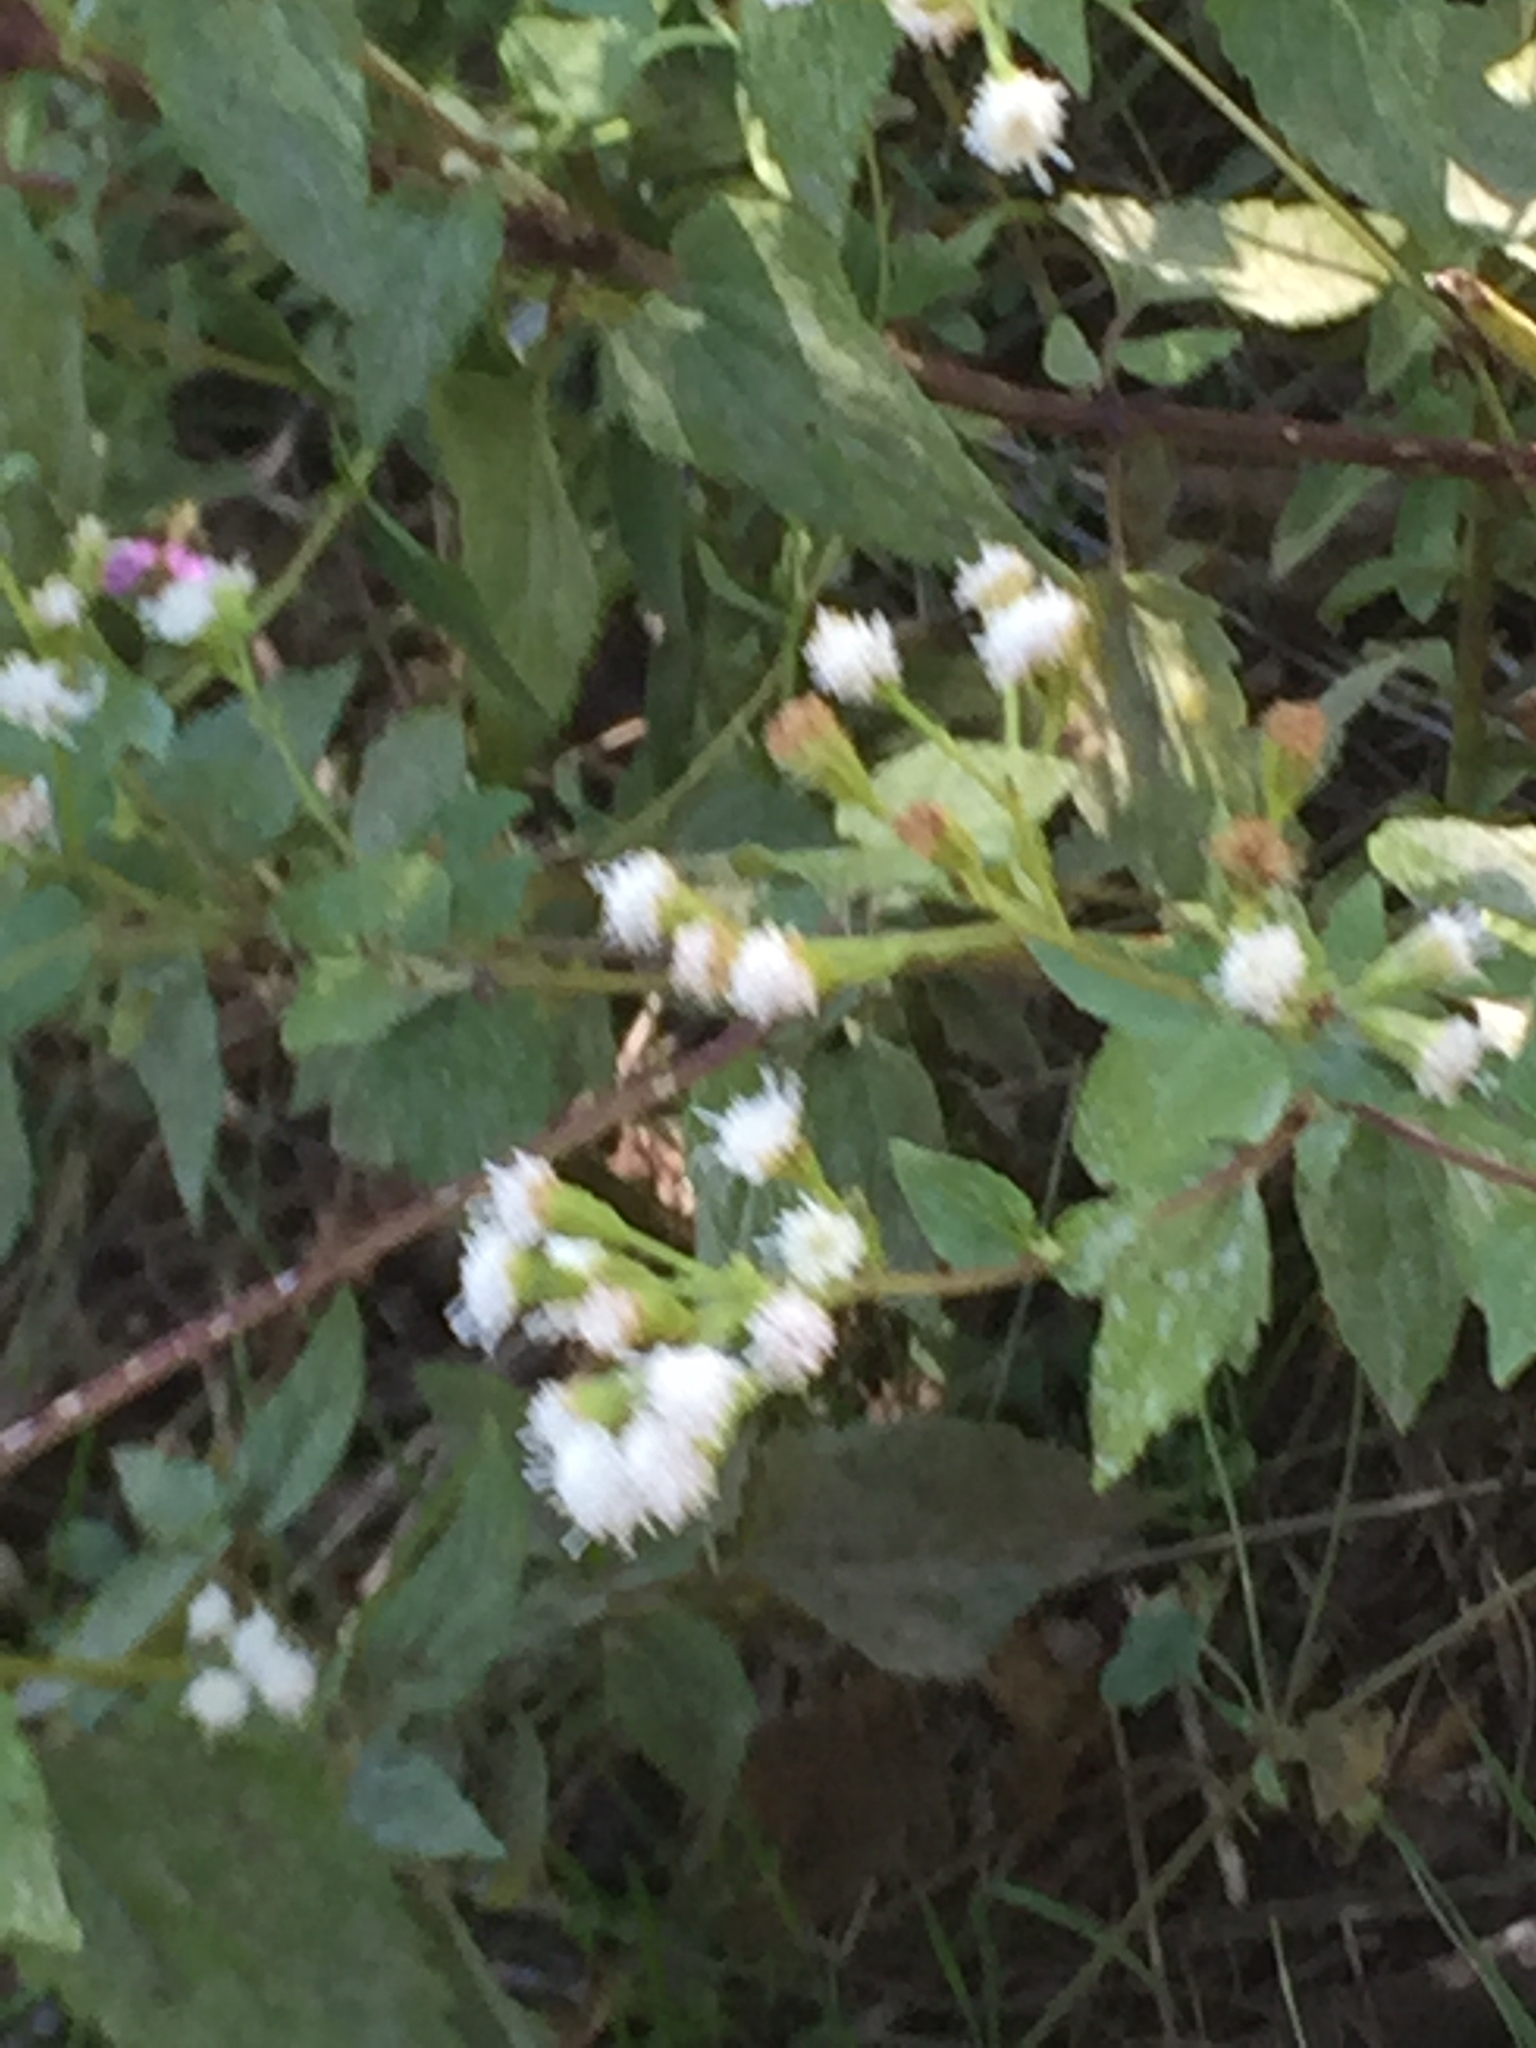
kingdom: Plantae
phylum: Tracheophyta
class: Magnoliopsida
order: Asterales
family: Asteraceae
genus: Ageratina
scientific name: Ageratina herbacea
